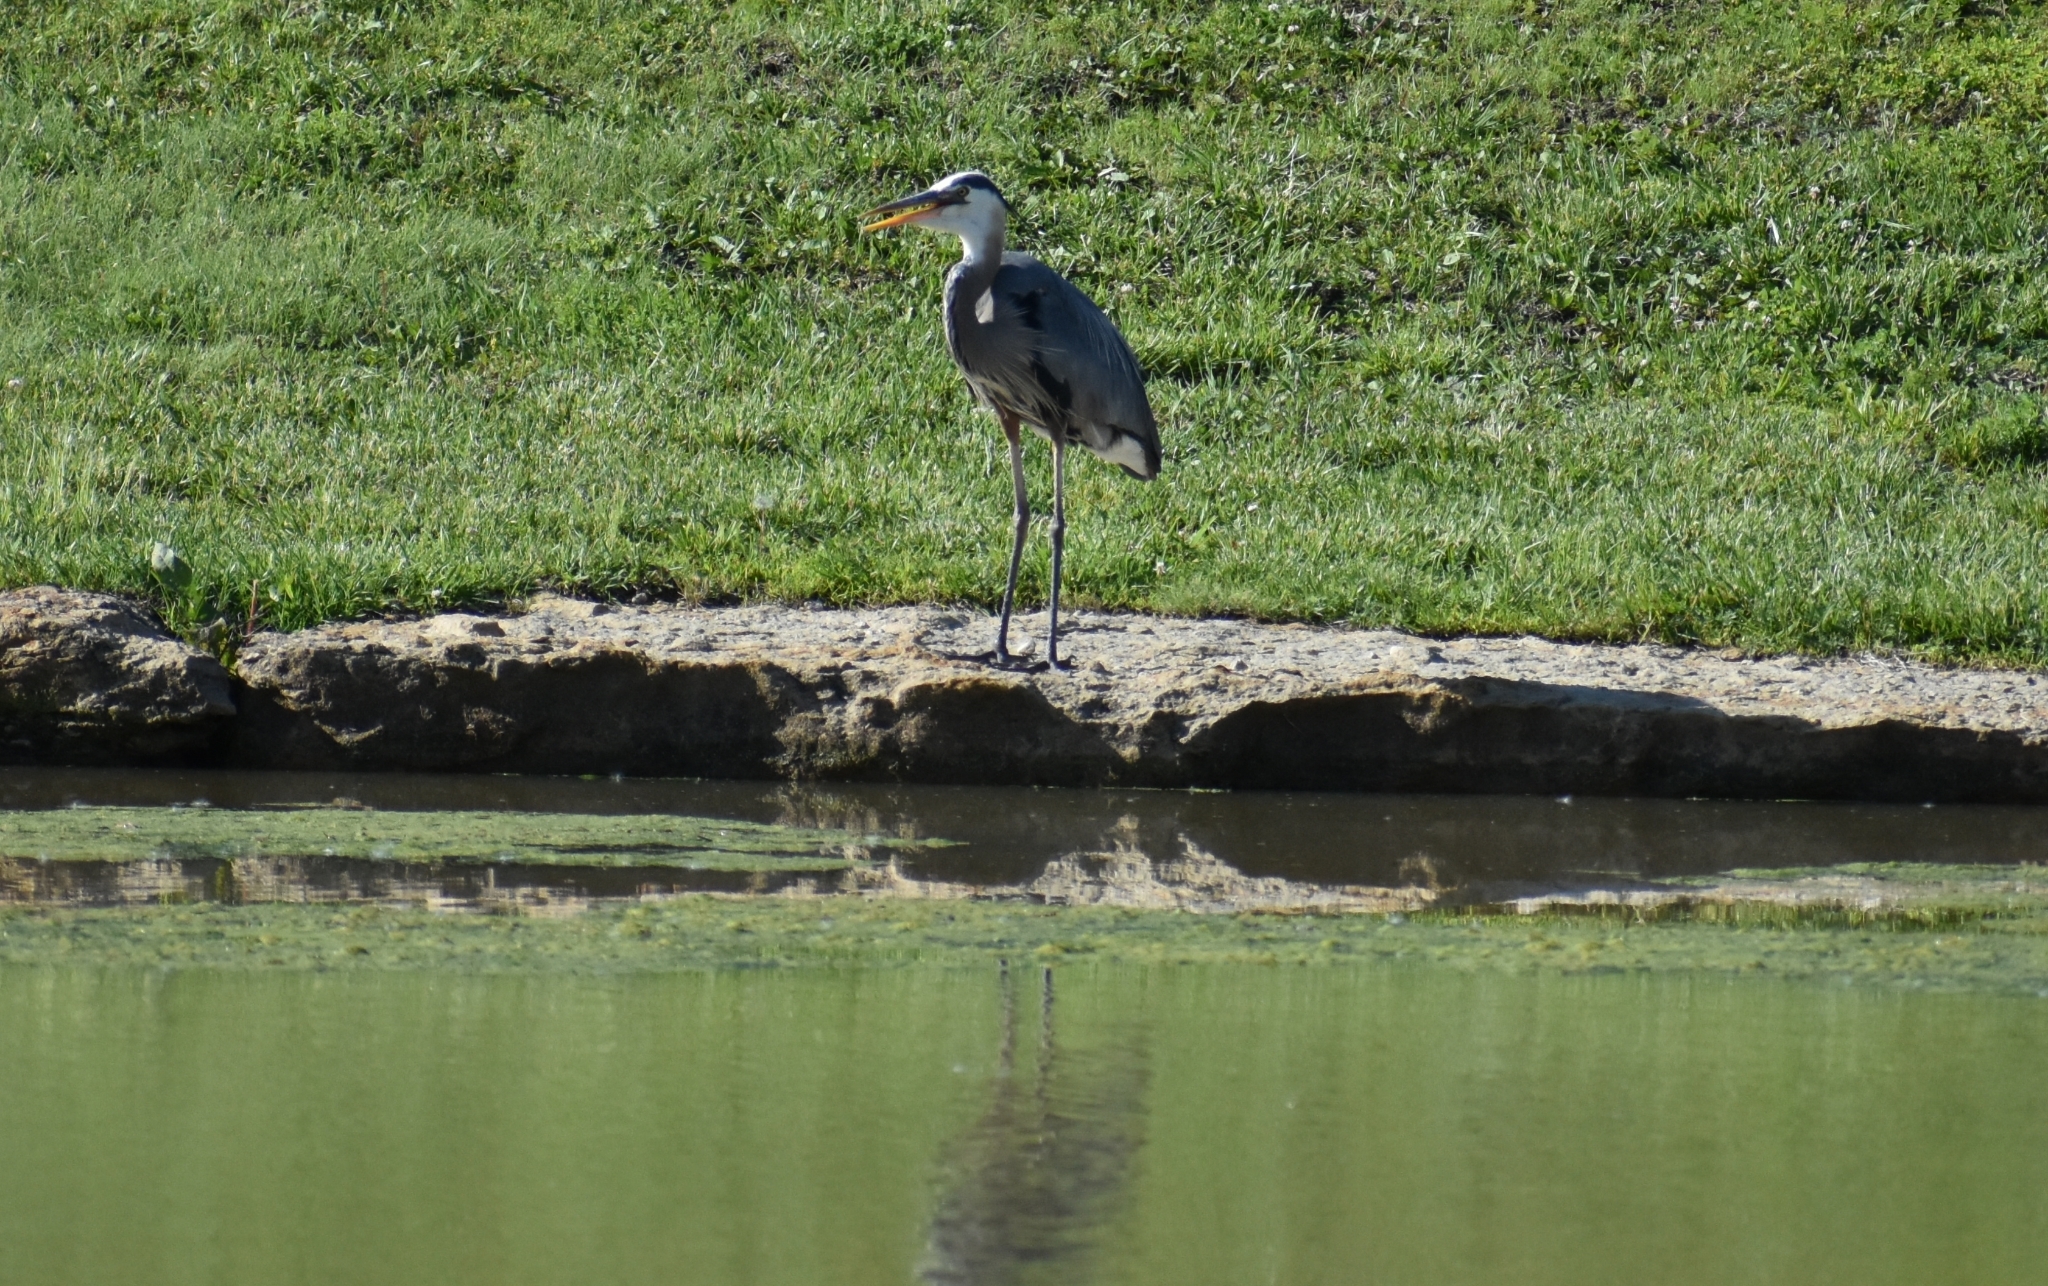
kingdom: Animalia
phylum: Chordata
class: Aves
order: Pelecaniformes
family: Ardeidae
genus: Ardea
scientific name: Ardea herodias
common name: Great blue heron
